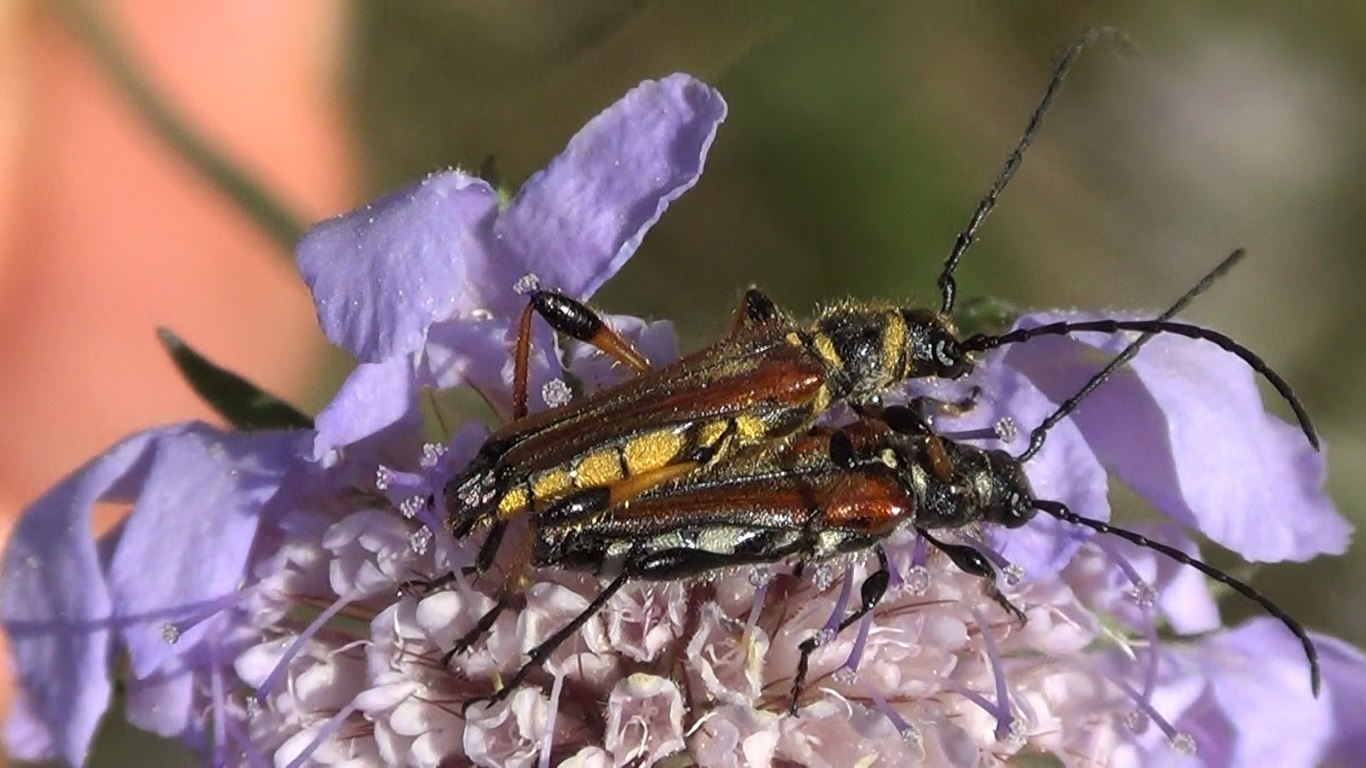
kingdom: Animalia
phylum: Arthropoda
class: Insecta
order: Coleoptera
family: Cerambycidae
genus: Stenopterus
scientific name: Stenopterus ater
